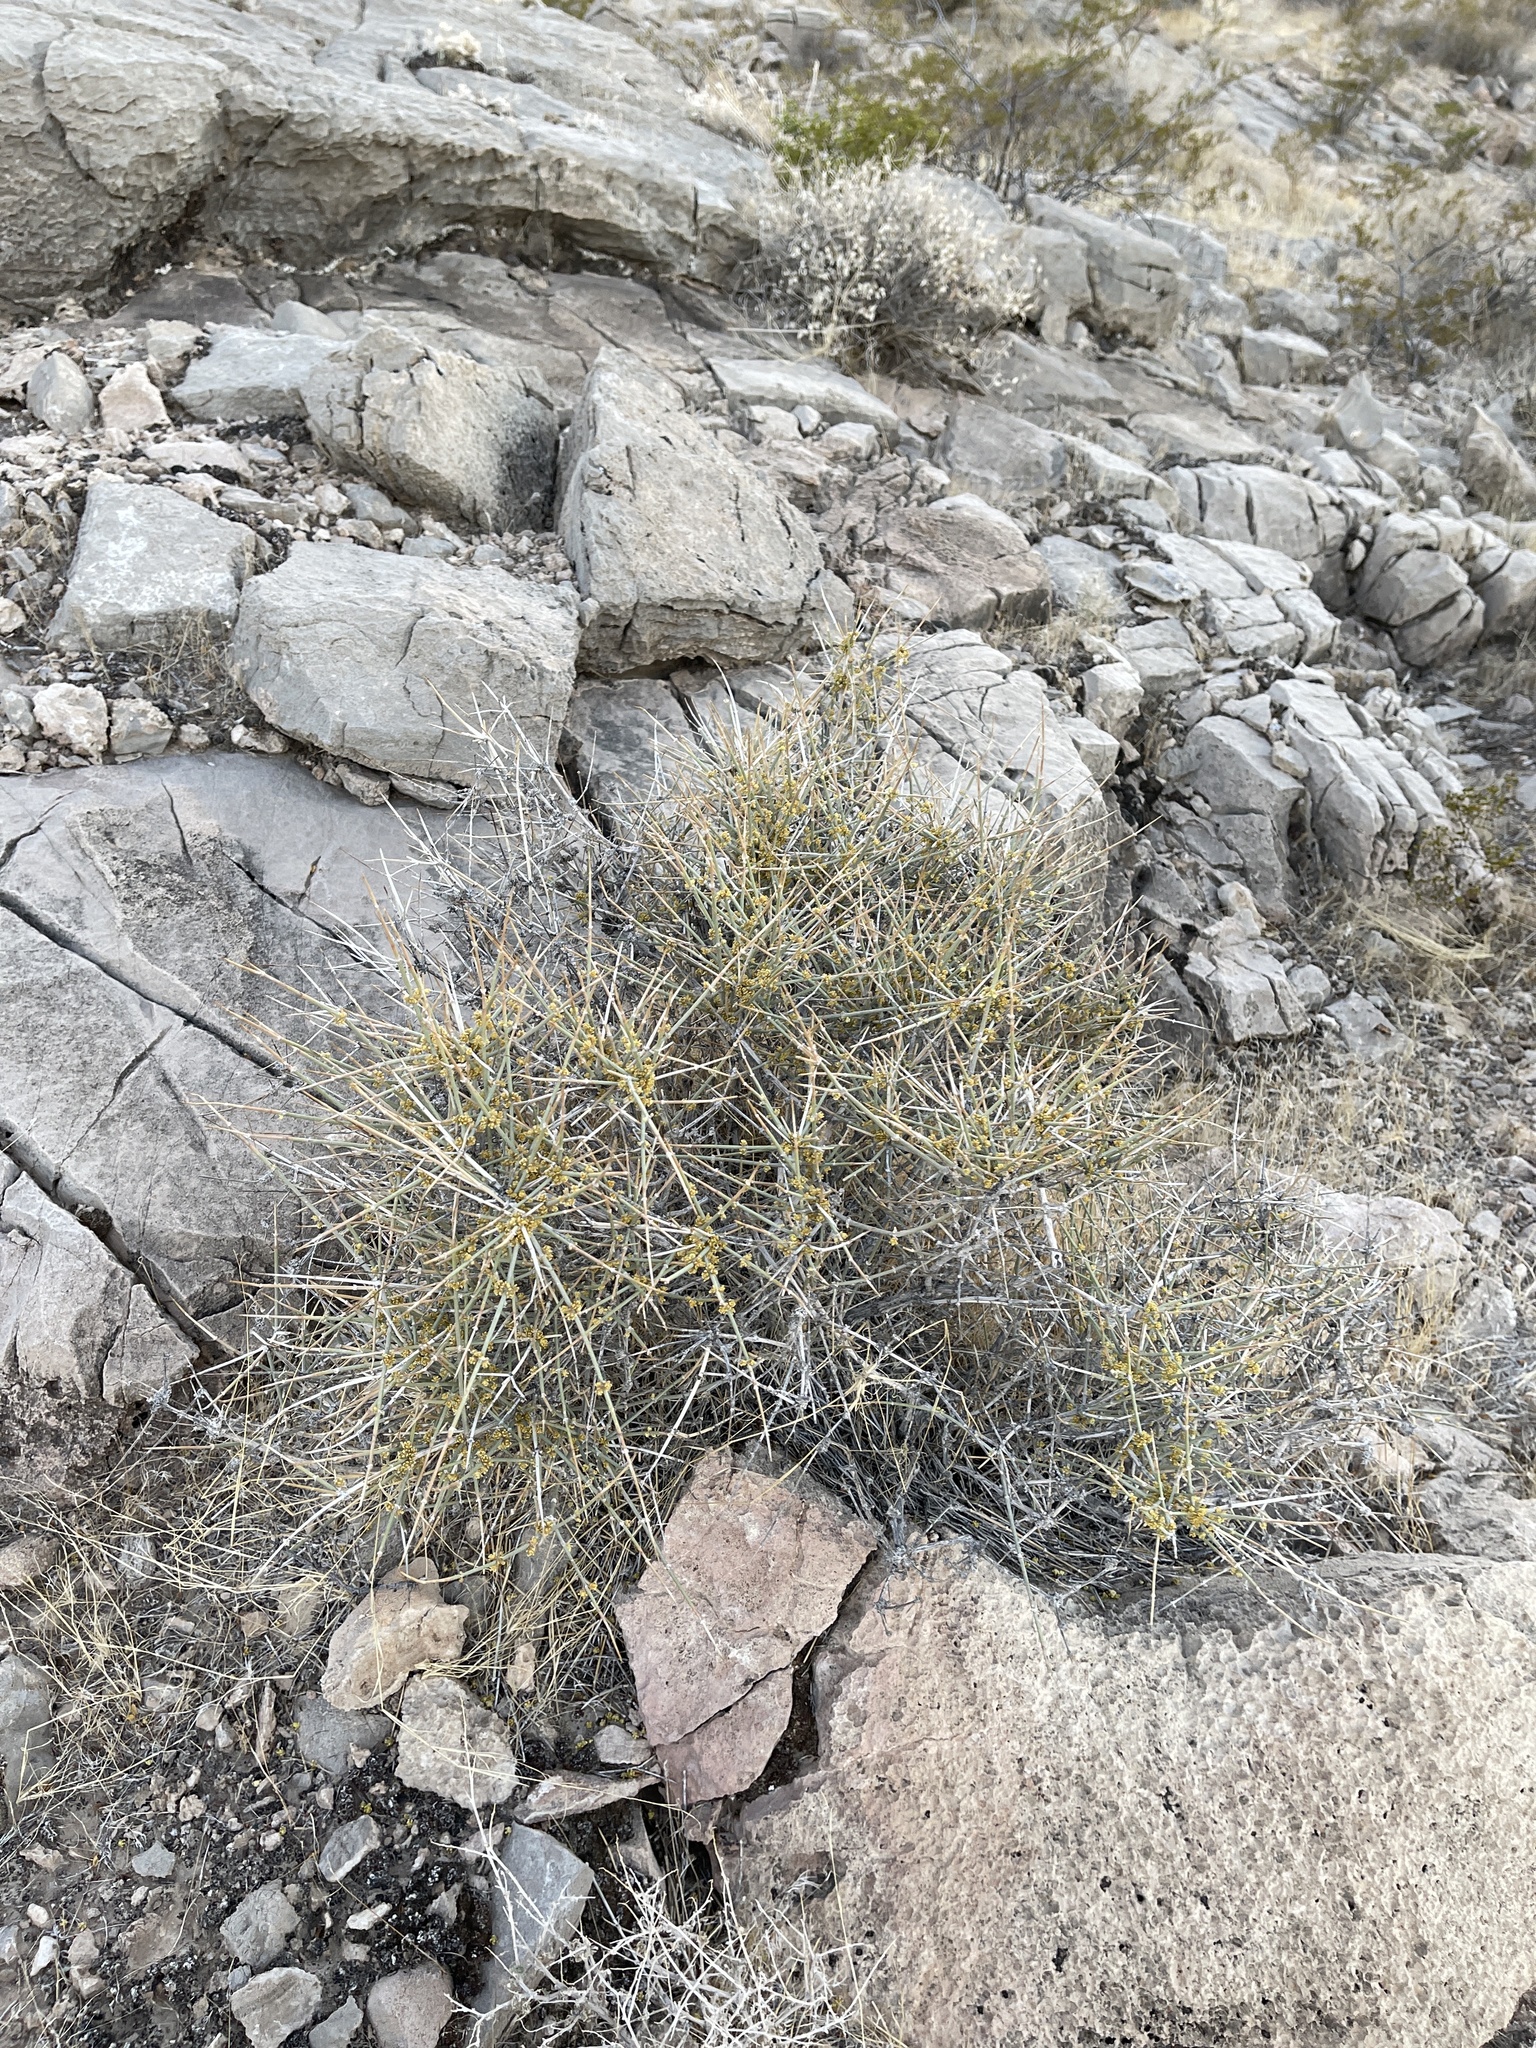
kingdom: Plantae
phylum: Tracheophyta
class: Gnetopsida
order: Ephedrales
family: Ephedraceae
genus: Ephedra
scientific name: Ephedra nevadensis
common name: Gray ephedra
